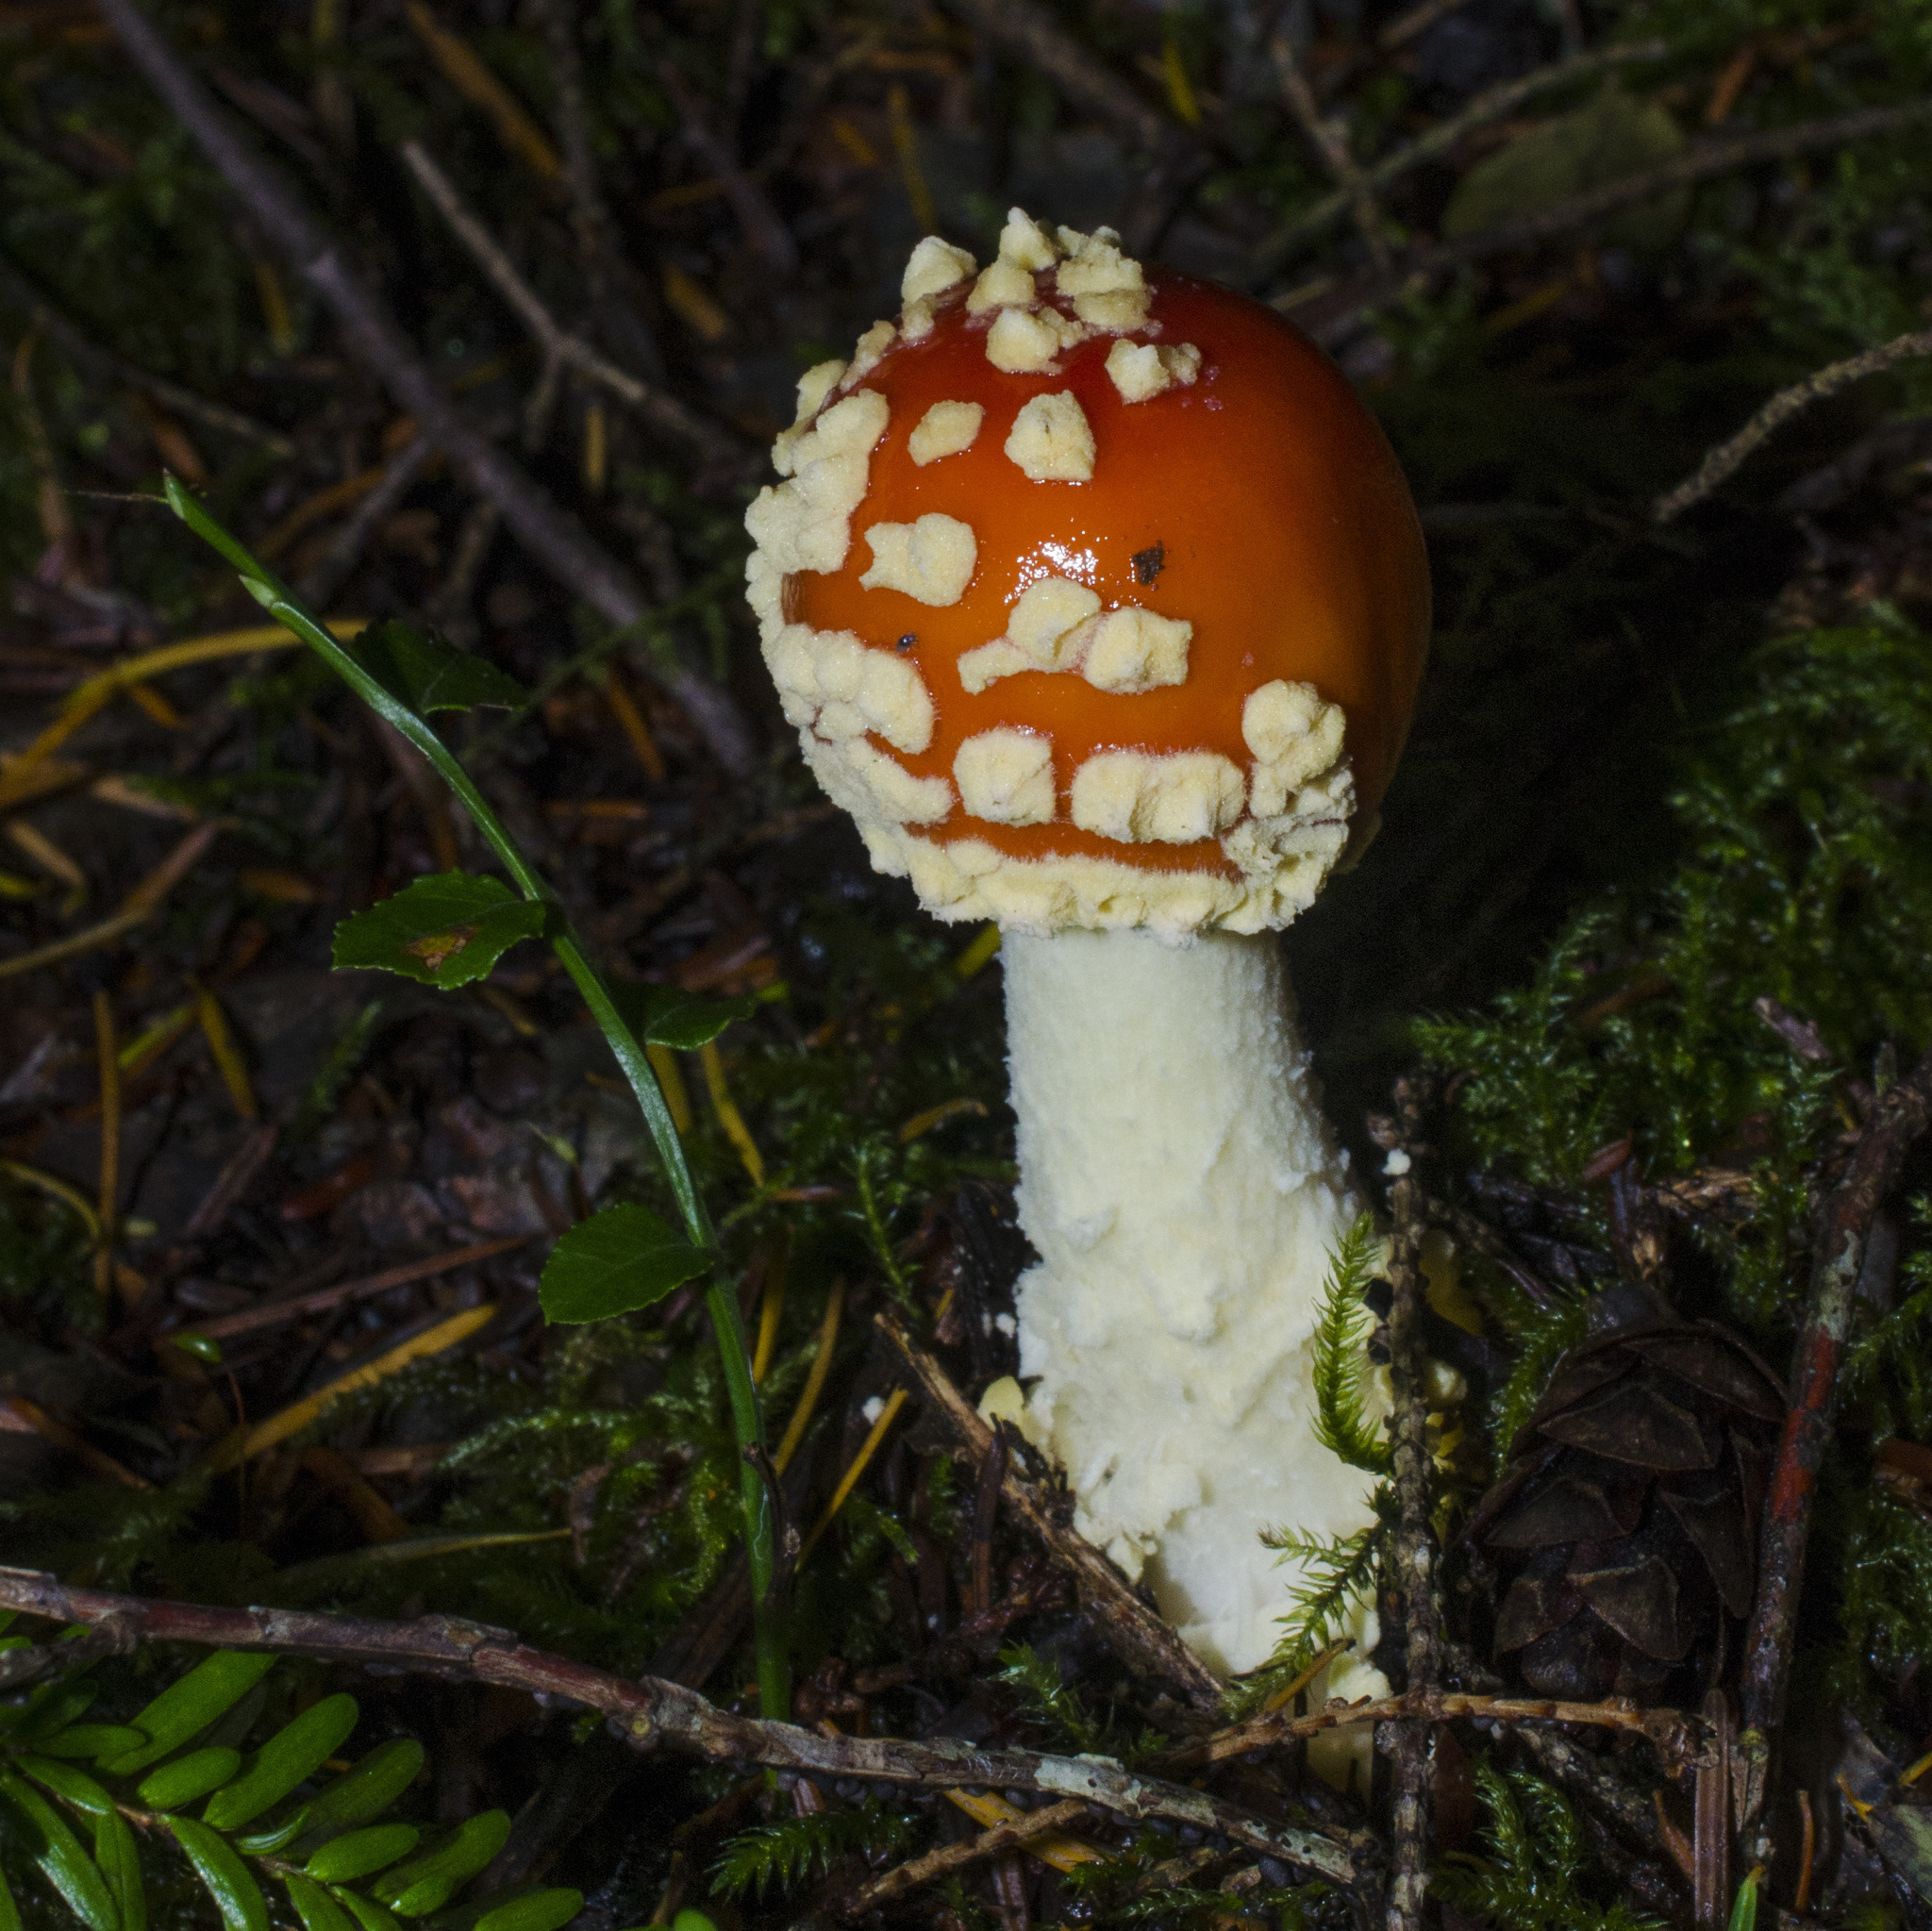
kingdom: Fungi
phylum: Basidiomycota
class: Agaricomycetes
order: Agaricales
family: Amanitaceae
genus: Amanita
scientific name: Amanita muscaria
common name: Fly agaric
